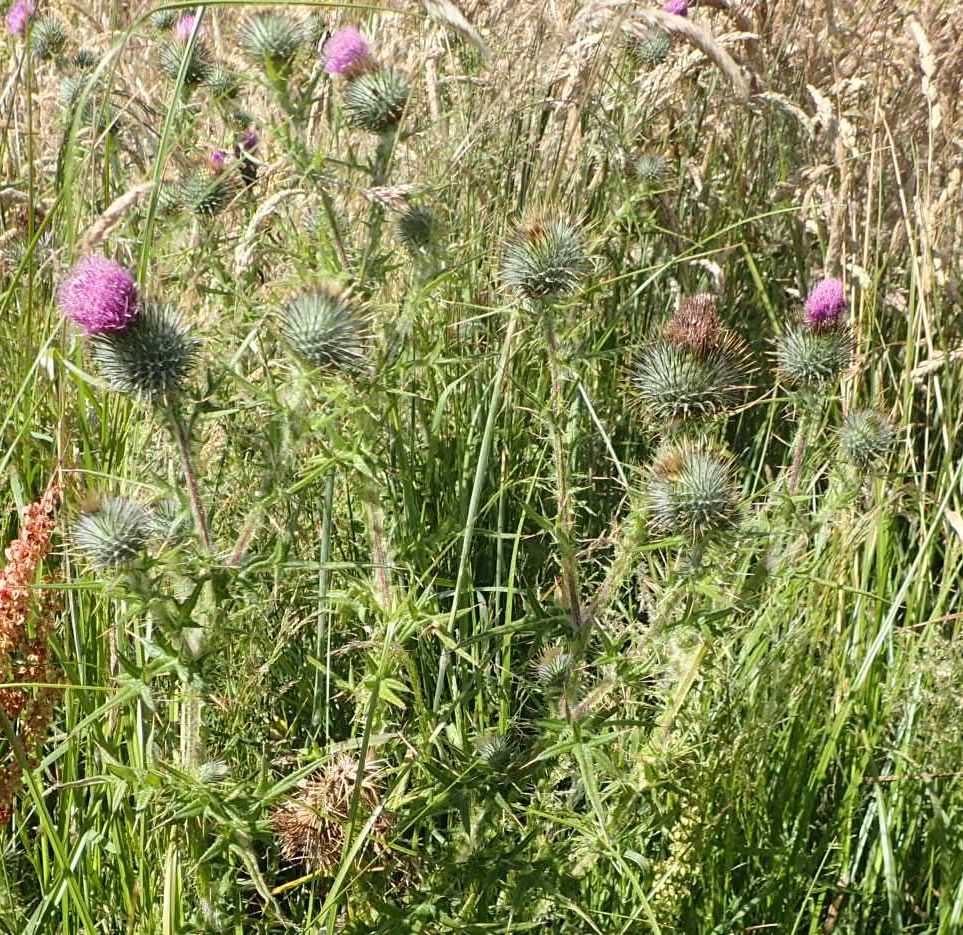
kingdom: Plantae
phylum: Tracheophyta
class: Magnoliopsida
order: Asterales
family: Asteraceae
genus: Cirsium
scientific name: Cirsium vulgare
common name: Bull thistle
